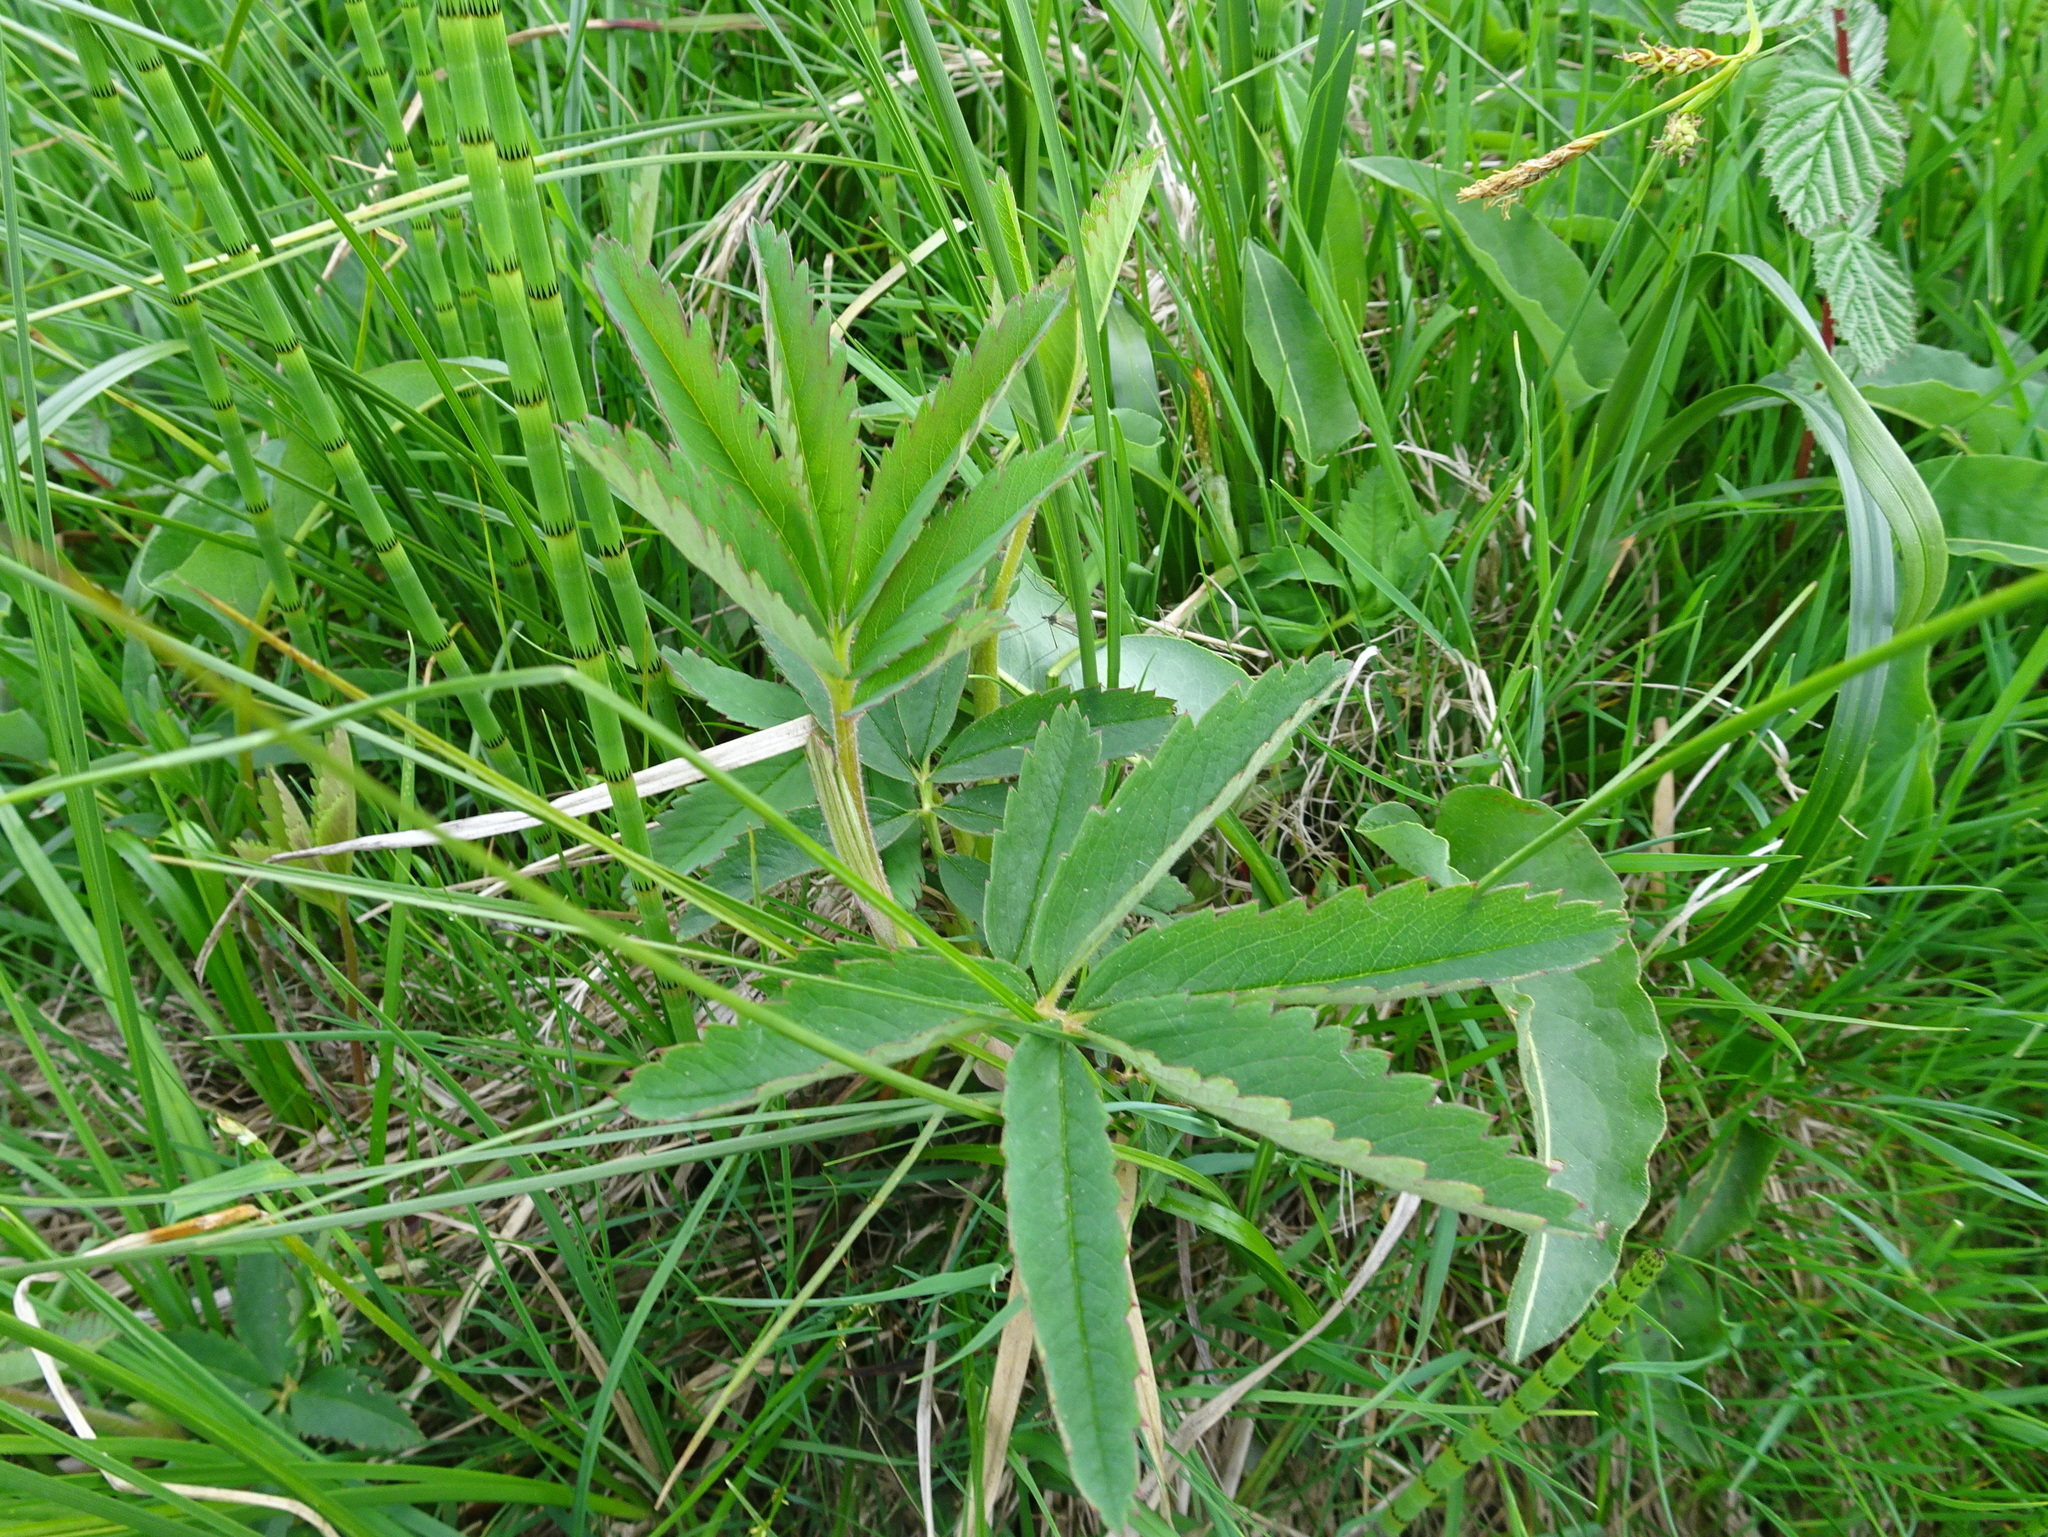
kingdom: Plantae
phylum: Tracheophyta
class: Magnoliopsida
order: Rosales
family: Rosaceae
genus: Comarum
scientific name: Comarum palustre
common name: Marsh cinquefoil
